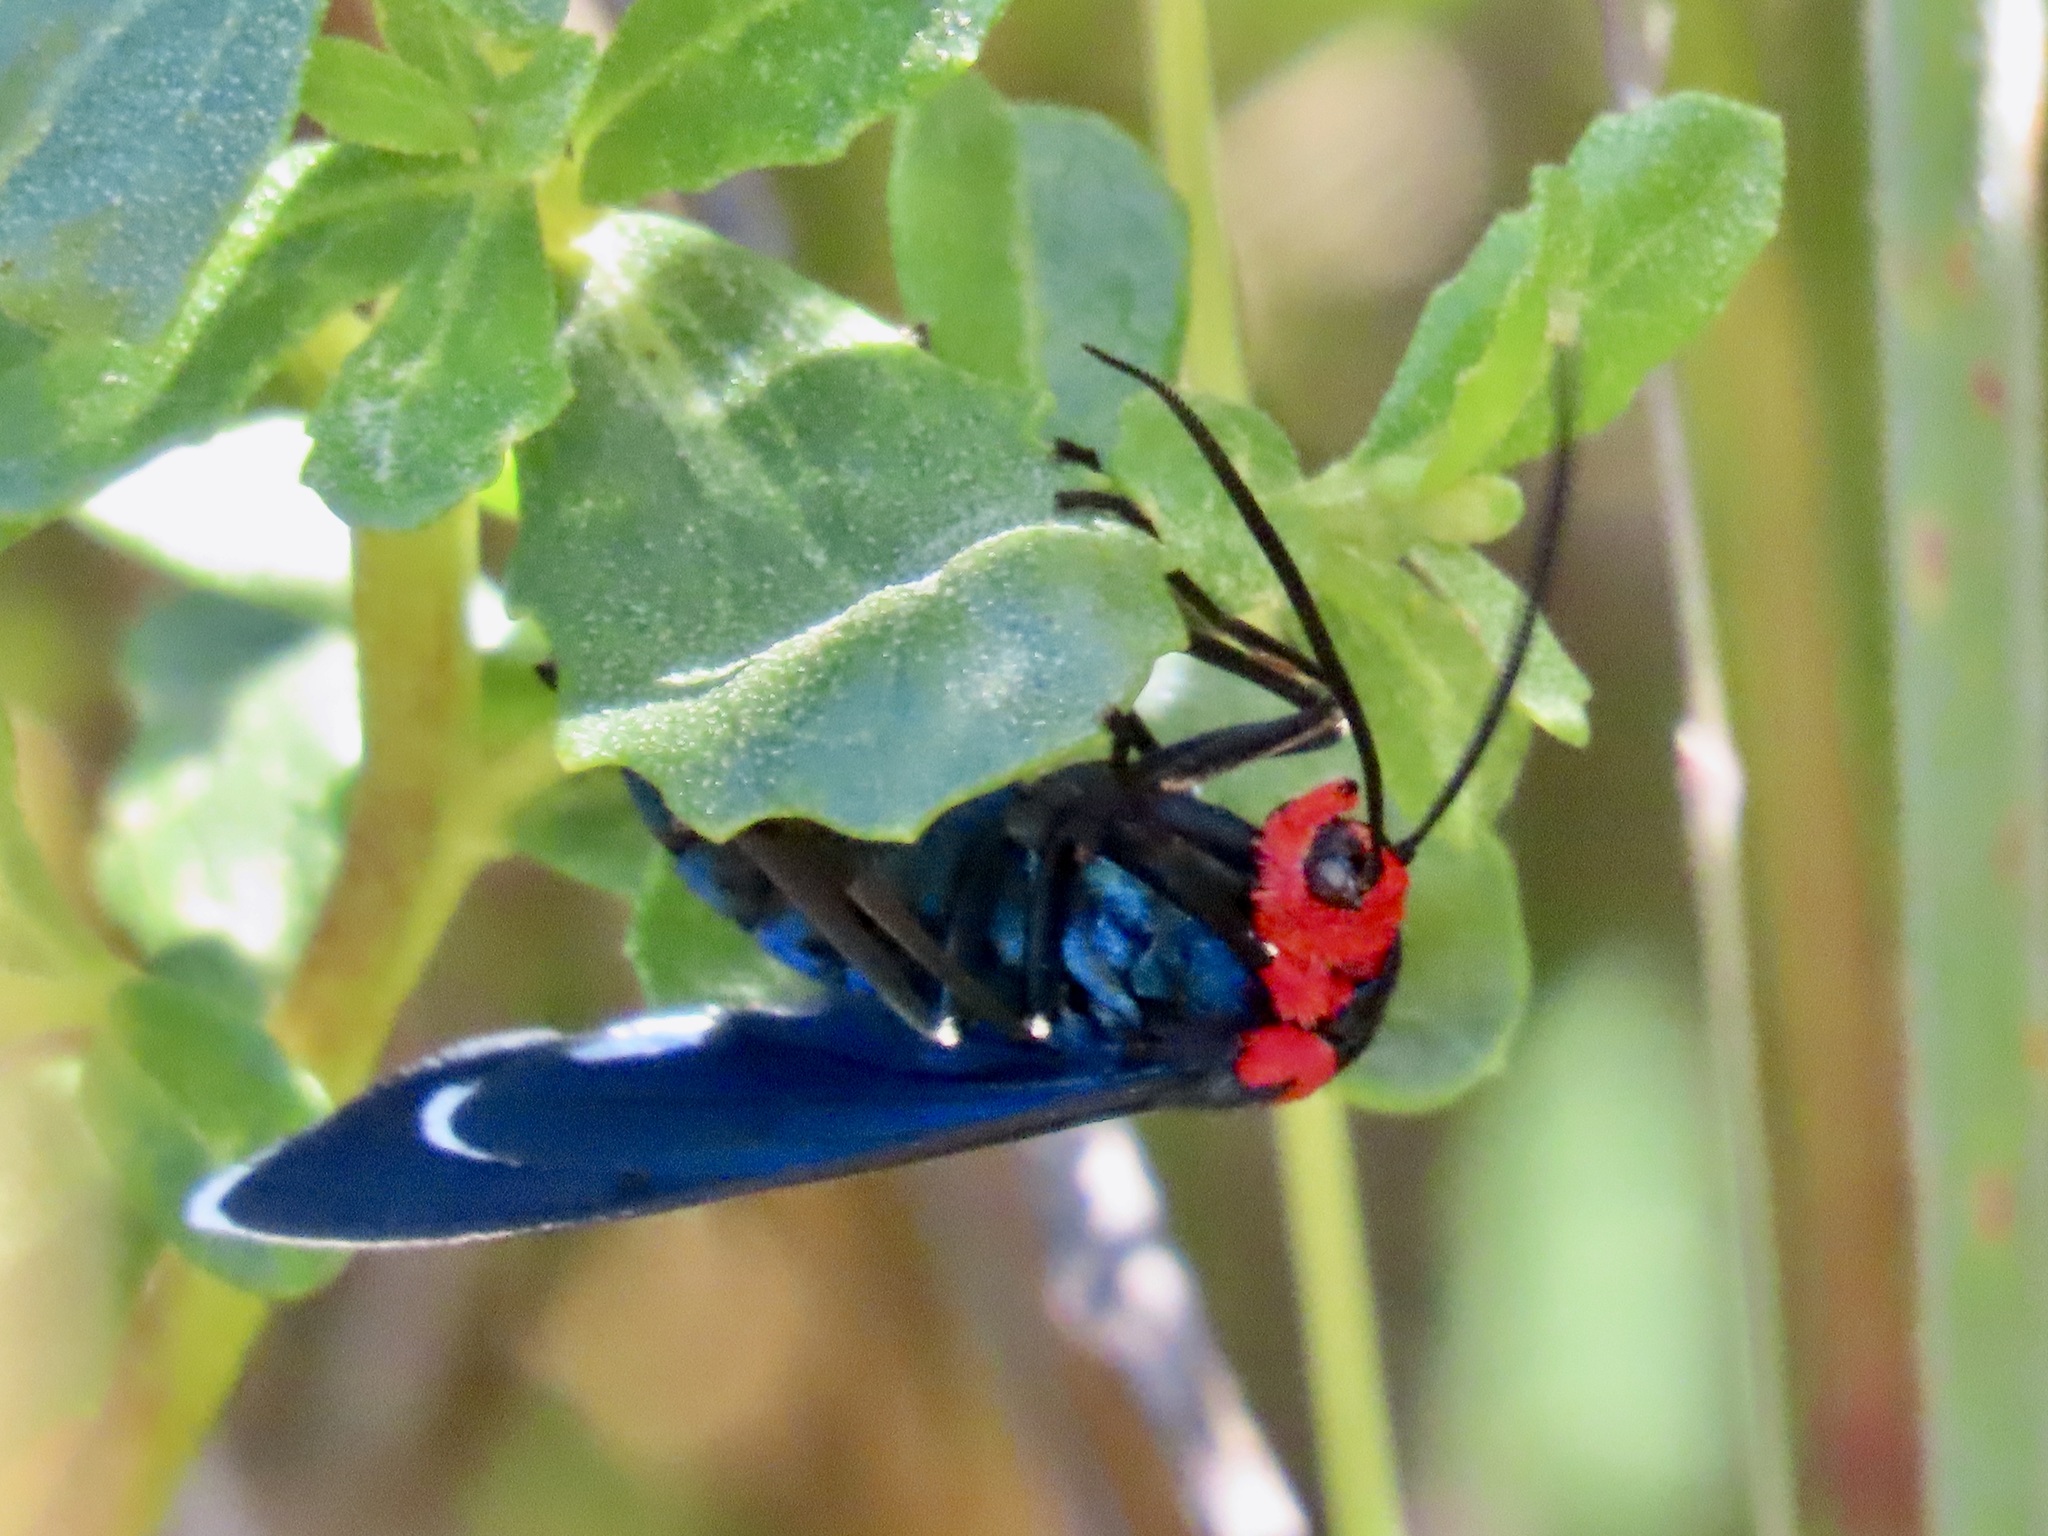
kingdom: Animalia
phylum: Arthropoda
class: Insecta
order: Lepidoptera
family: Erebidae
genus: Ctenucha
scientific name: Ctenucha rubroscapus
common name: Red-shouldered ctenucha
